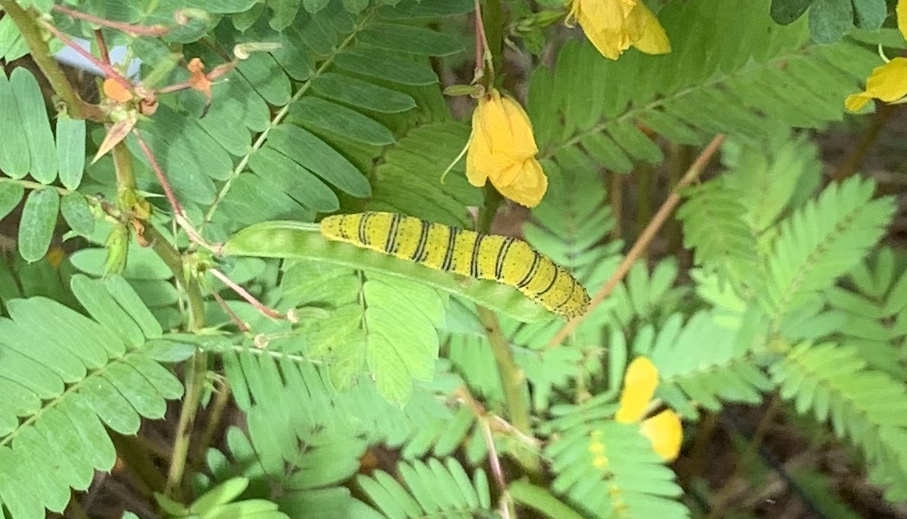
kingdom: Animalia
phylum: Arthropoda
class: Insecta
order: Lepidoptera
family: Pieridae
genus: Phoebis
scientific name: Phoebis sennae
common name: Cloudless sulphur
